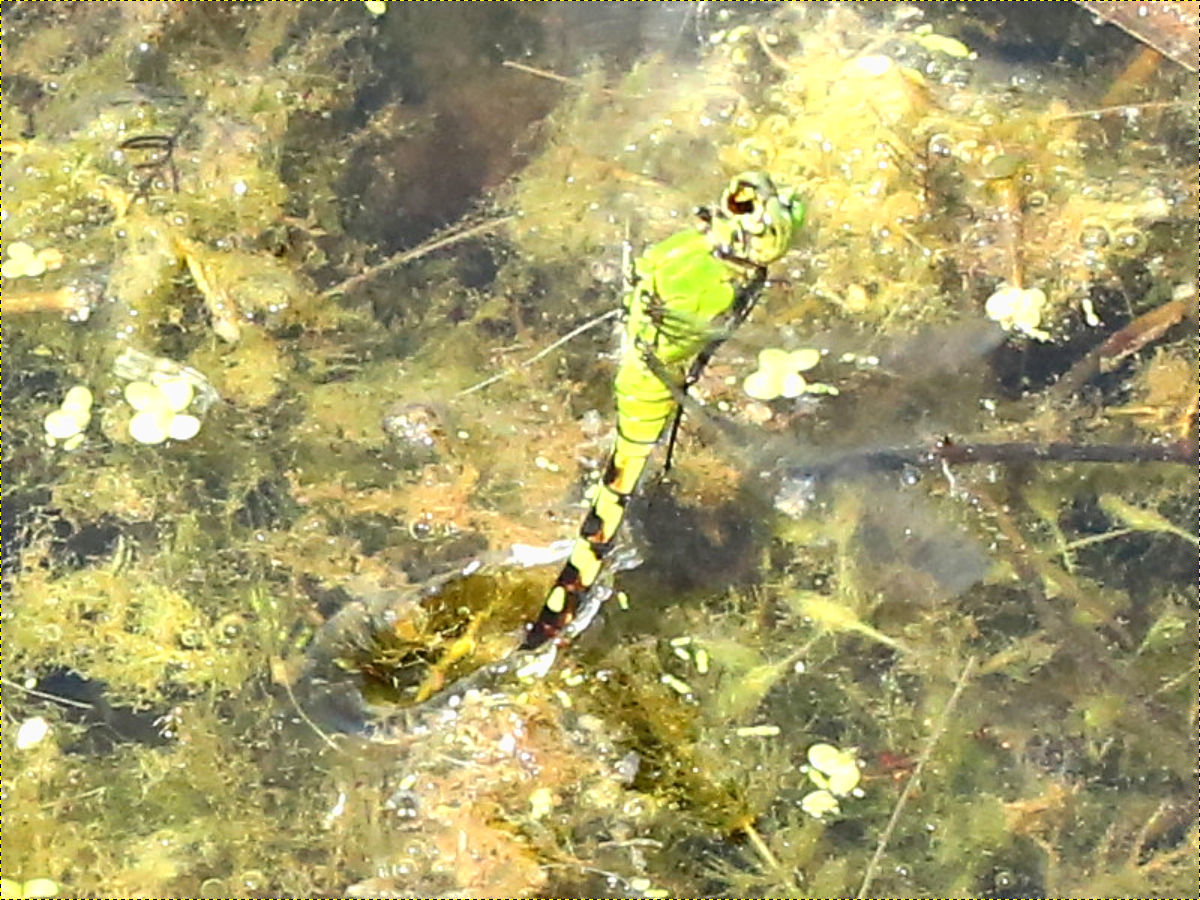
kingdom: Animalia
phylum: Arthropoda
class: Insecta
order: Odonata
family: Libellulidae
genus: Erythemis
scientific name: Erythemis simplicicollis
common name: Eastern pondhawk
